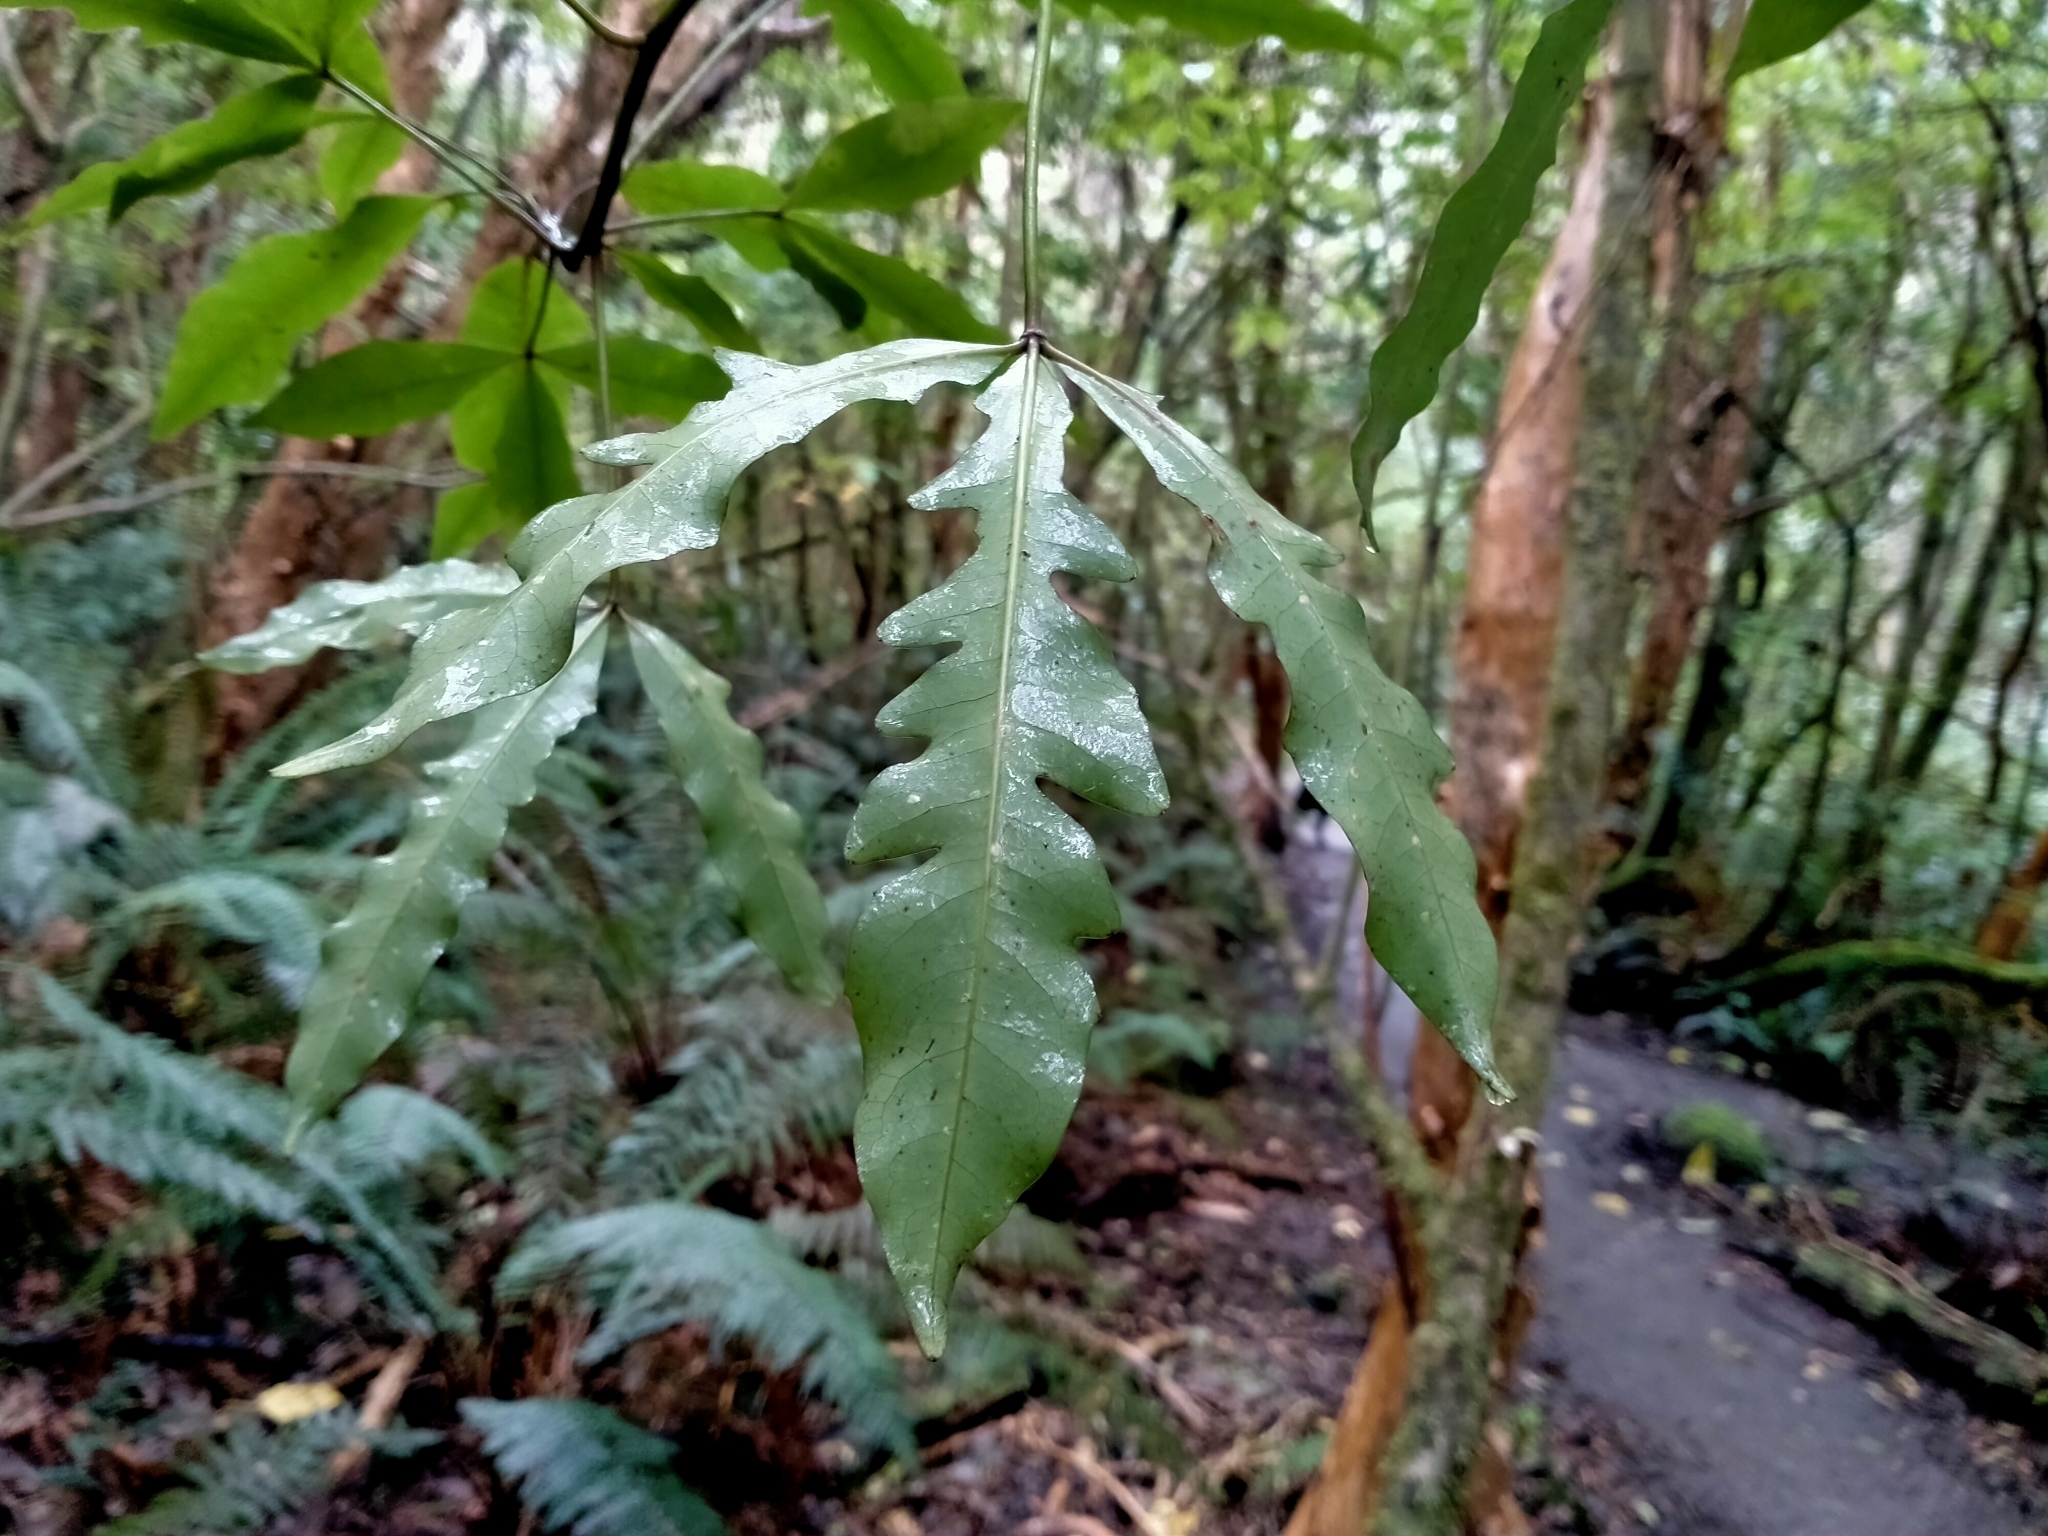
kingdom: Plantae
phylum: Tracheophyta
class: Magnoliopsida
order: Apiales
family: Araliaceae
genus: Raukaua
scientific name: Raukaua edgerleyi
